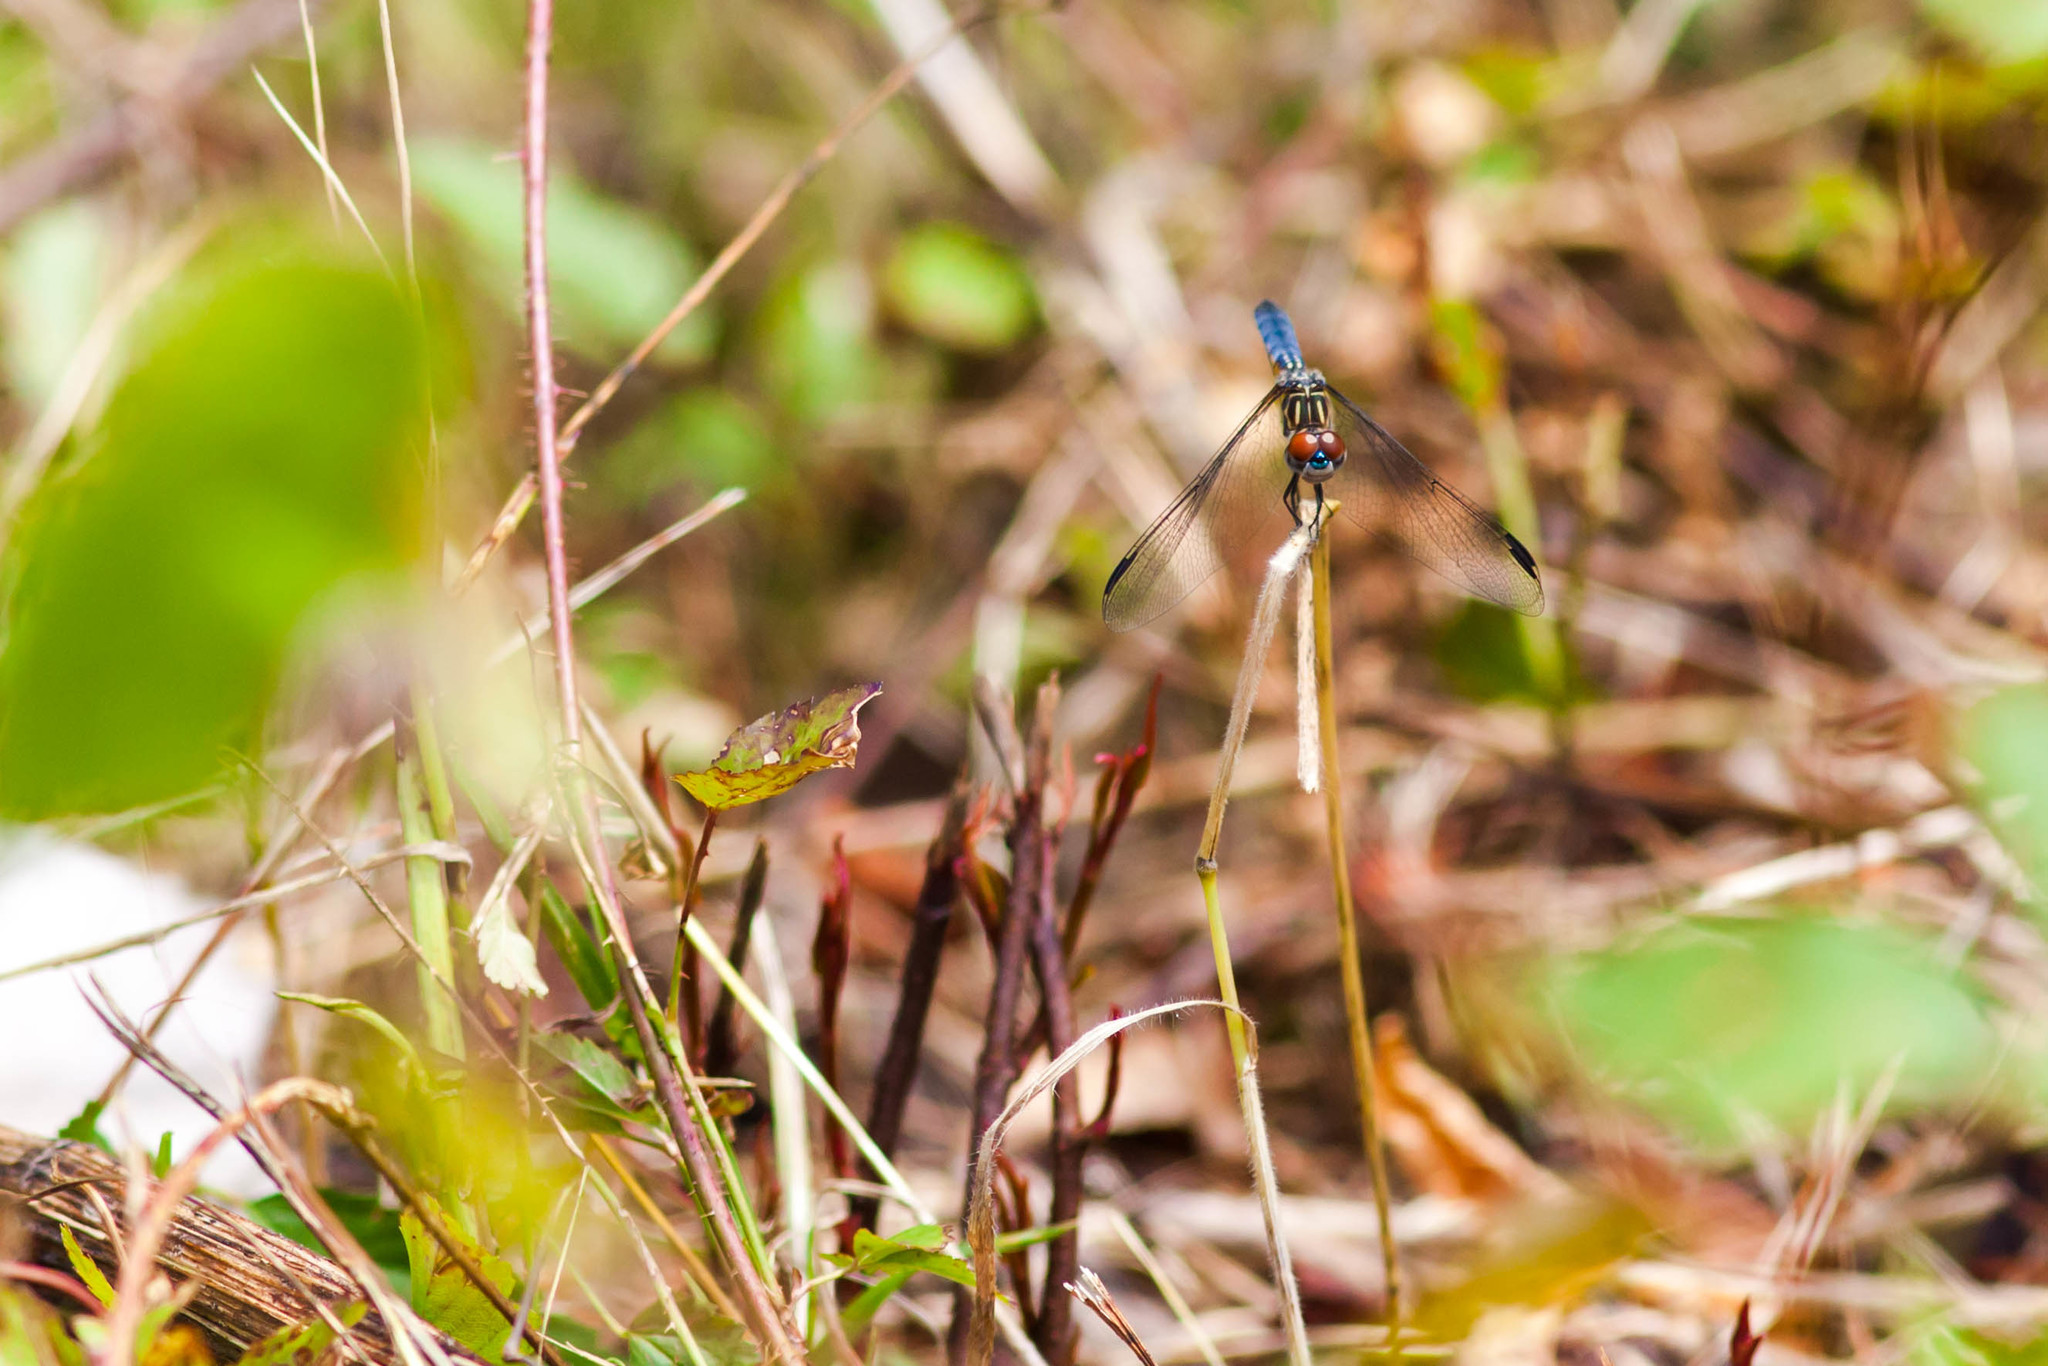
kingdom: Animalia
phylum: Arthropoda
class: Insecta
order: Odonata
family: Libellulidae
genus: Pachydiplax
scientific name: Pachydiplax longipennis
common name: Blue dasher
